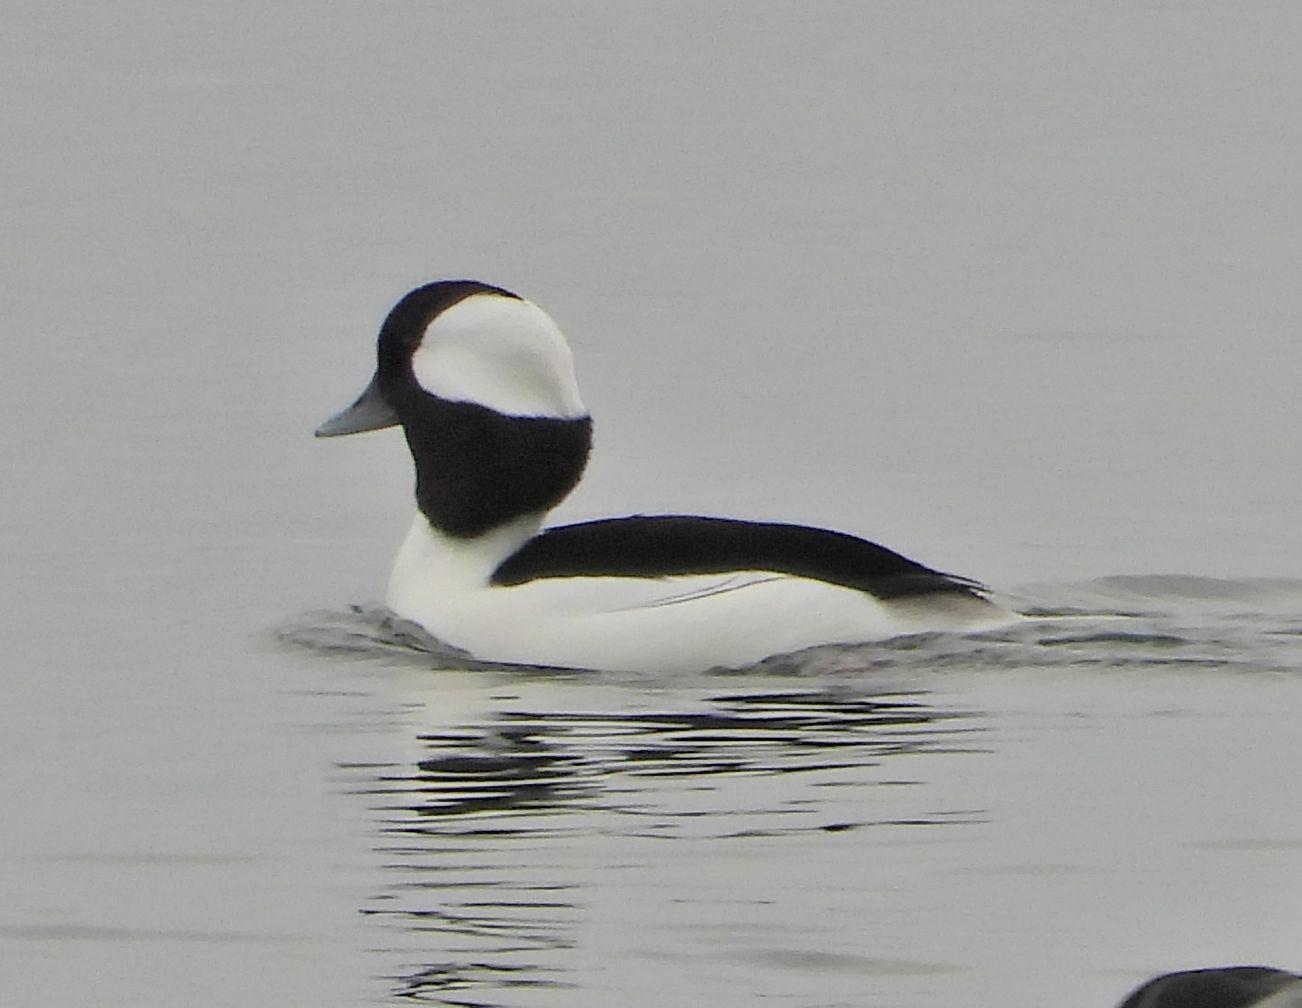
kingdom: Animalia
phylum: Chordata
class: Aves
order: Anseriformes
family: Anatidae
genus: Bucephala
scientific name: Bucephala albeola
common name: Bufflehead
